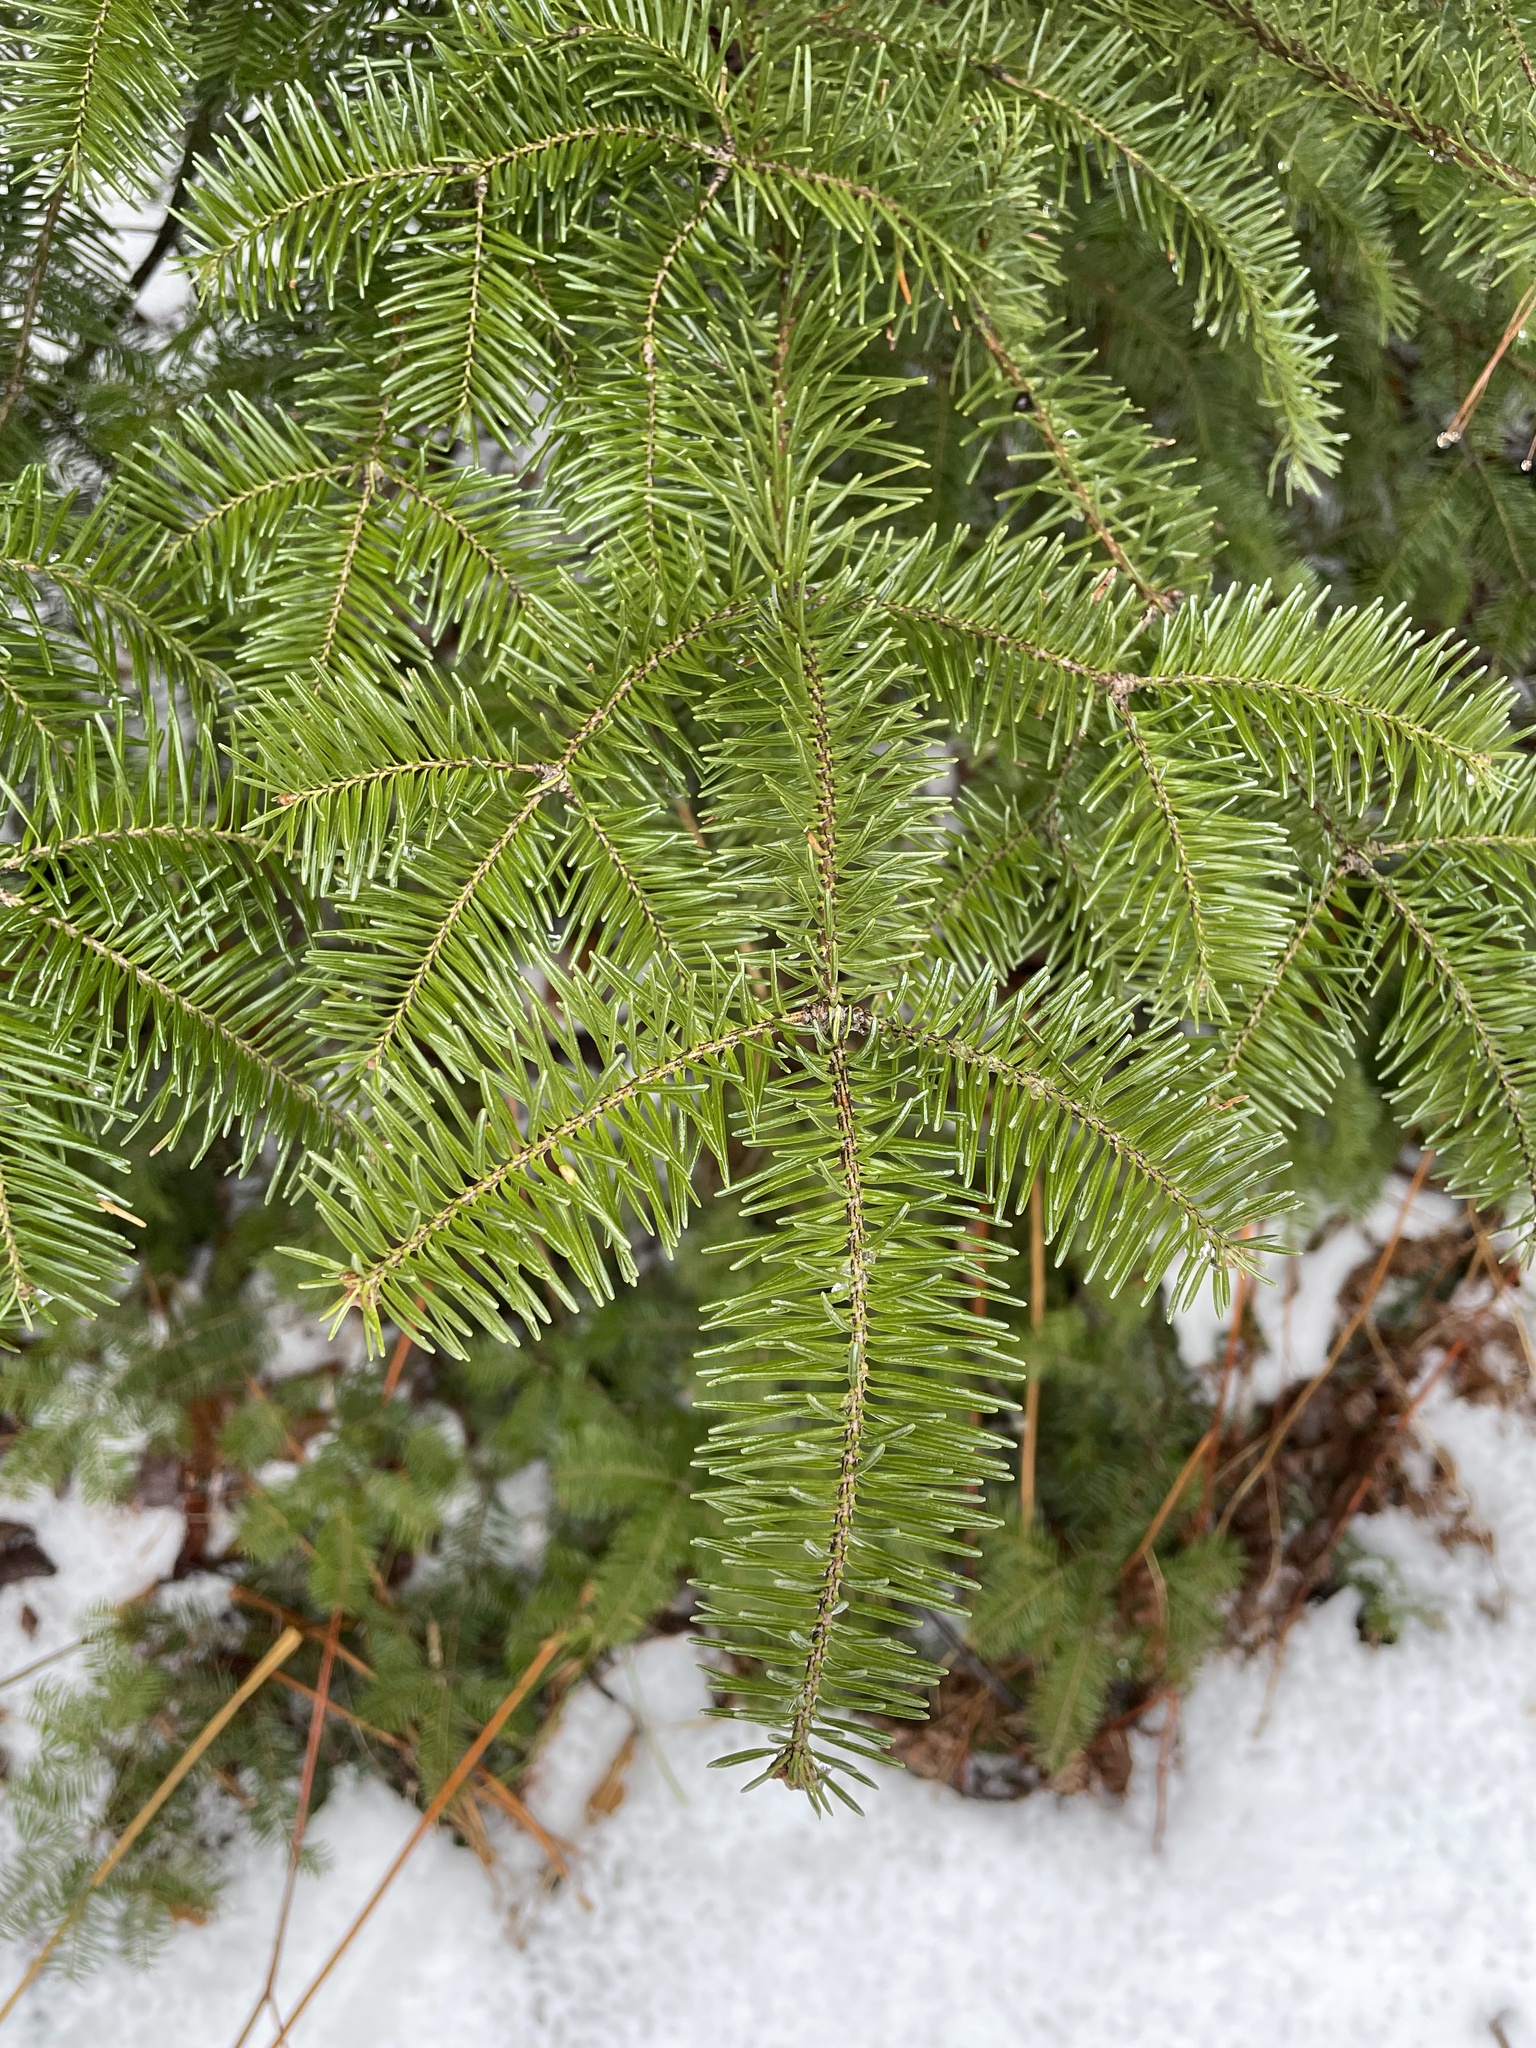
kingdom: Plantae
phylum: Tracheophyta
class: Pinopsida
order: Pinales
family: Pinaceae
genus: Abies
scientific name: Abies balsamea
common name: Balsam fir
